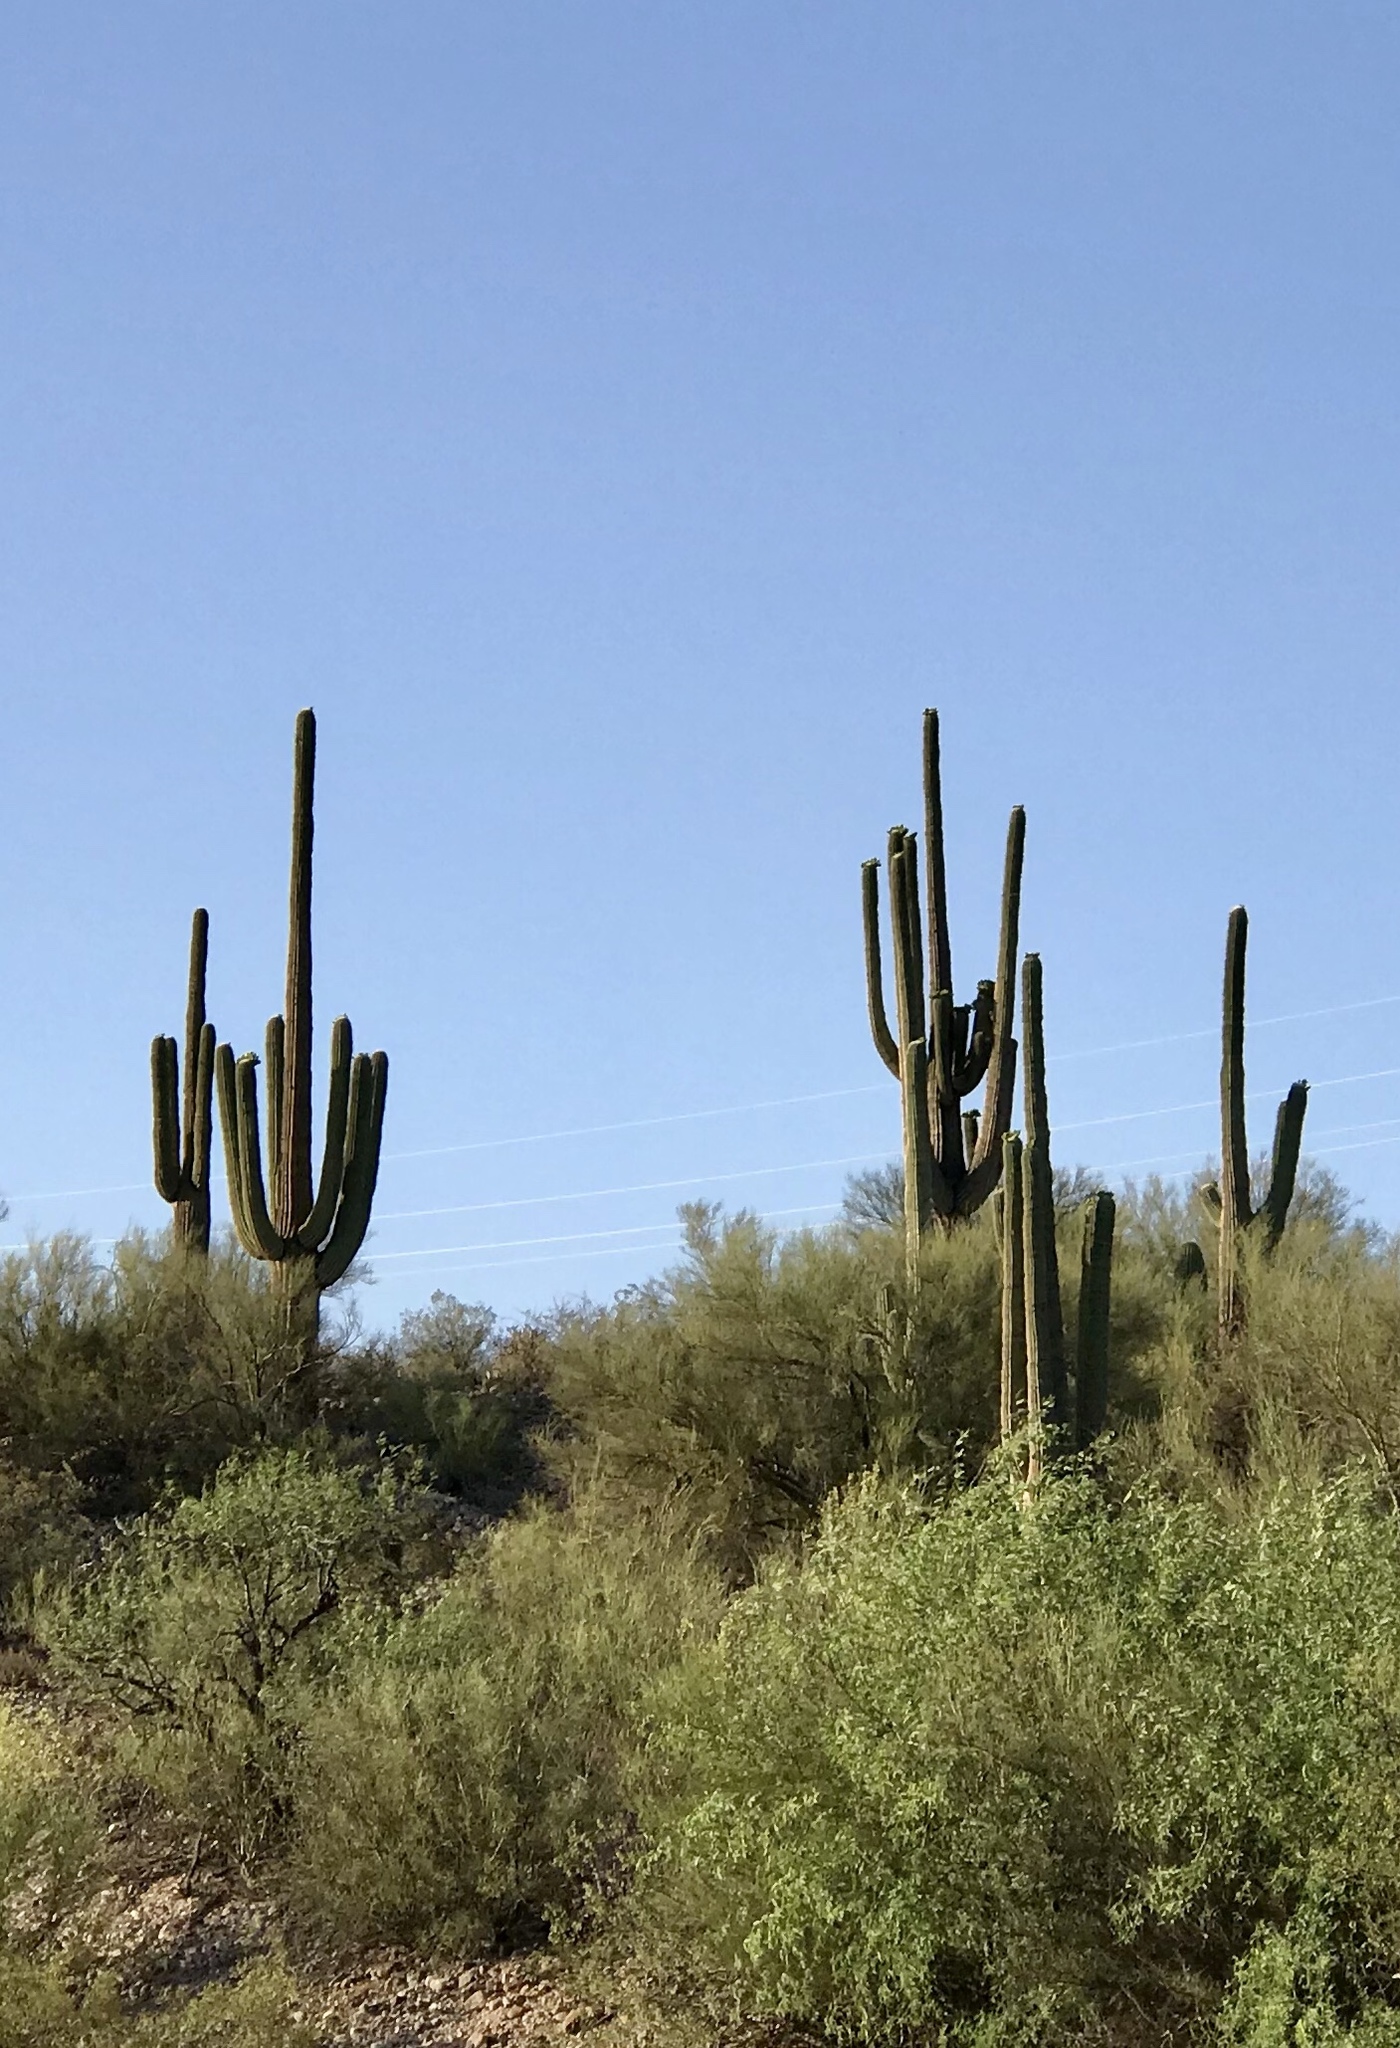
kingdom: Plantae
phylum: Tracheophyta
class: Magnoliopsida
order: Caryophyllales
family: Cactaceae
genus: Carnegiea
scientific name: Carnegiea gigantea
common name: Saguaro
